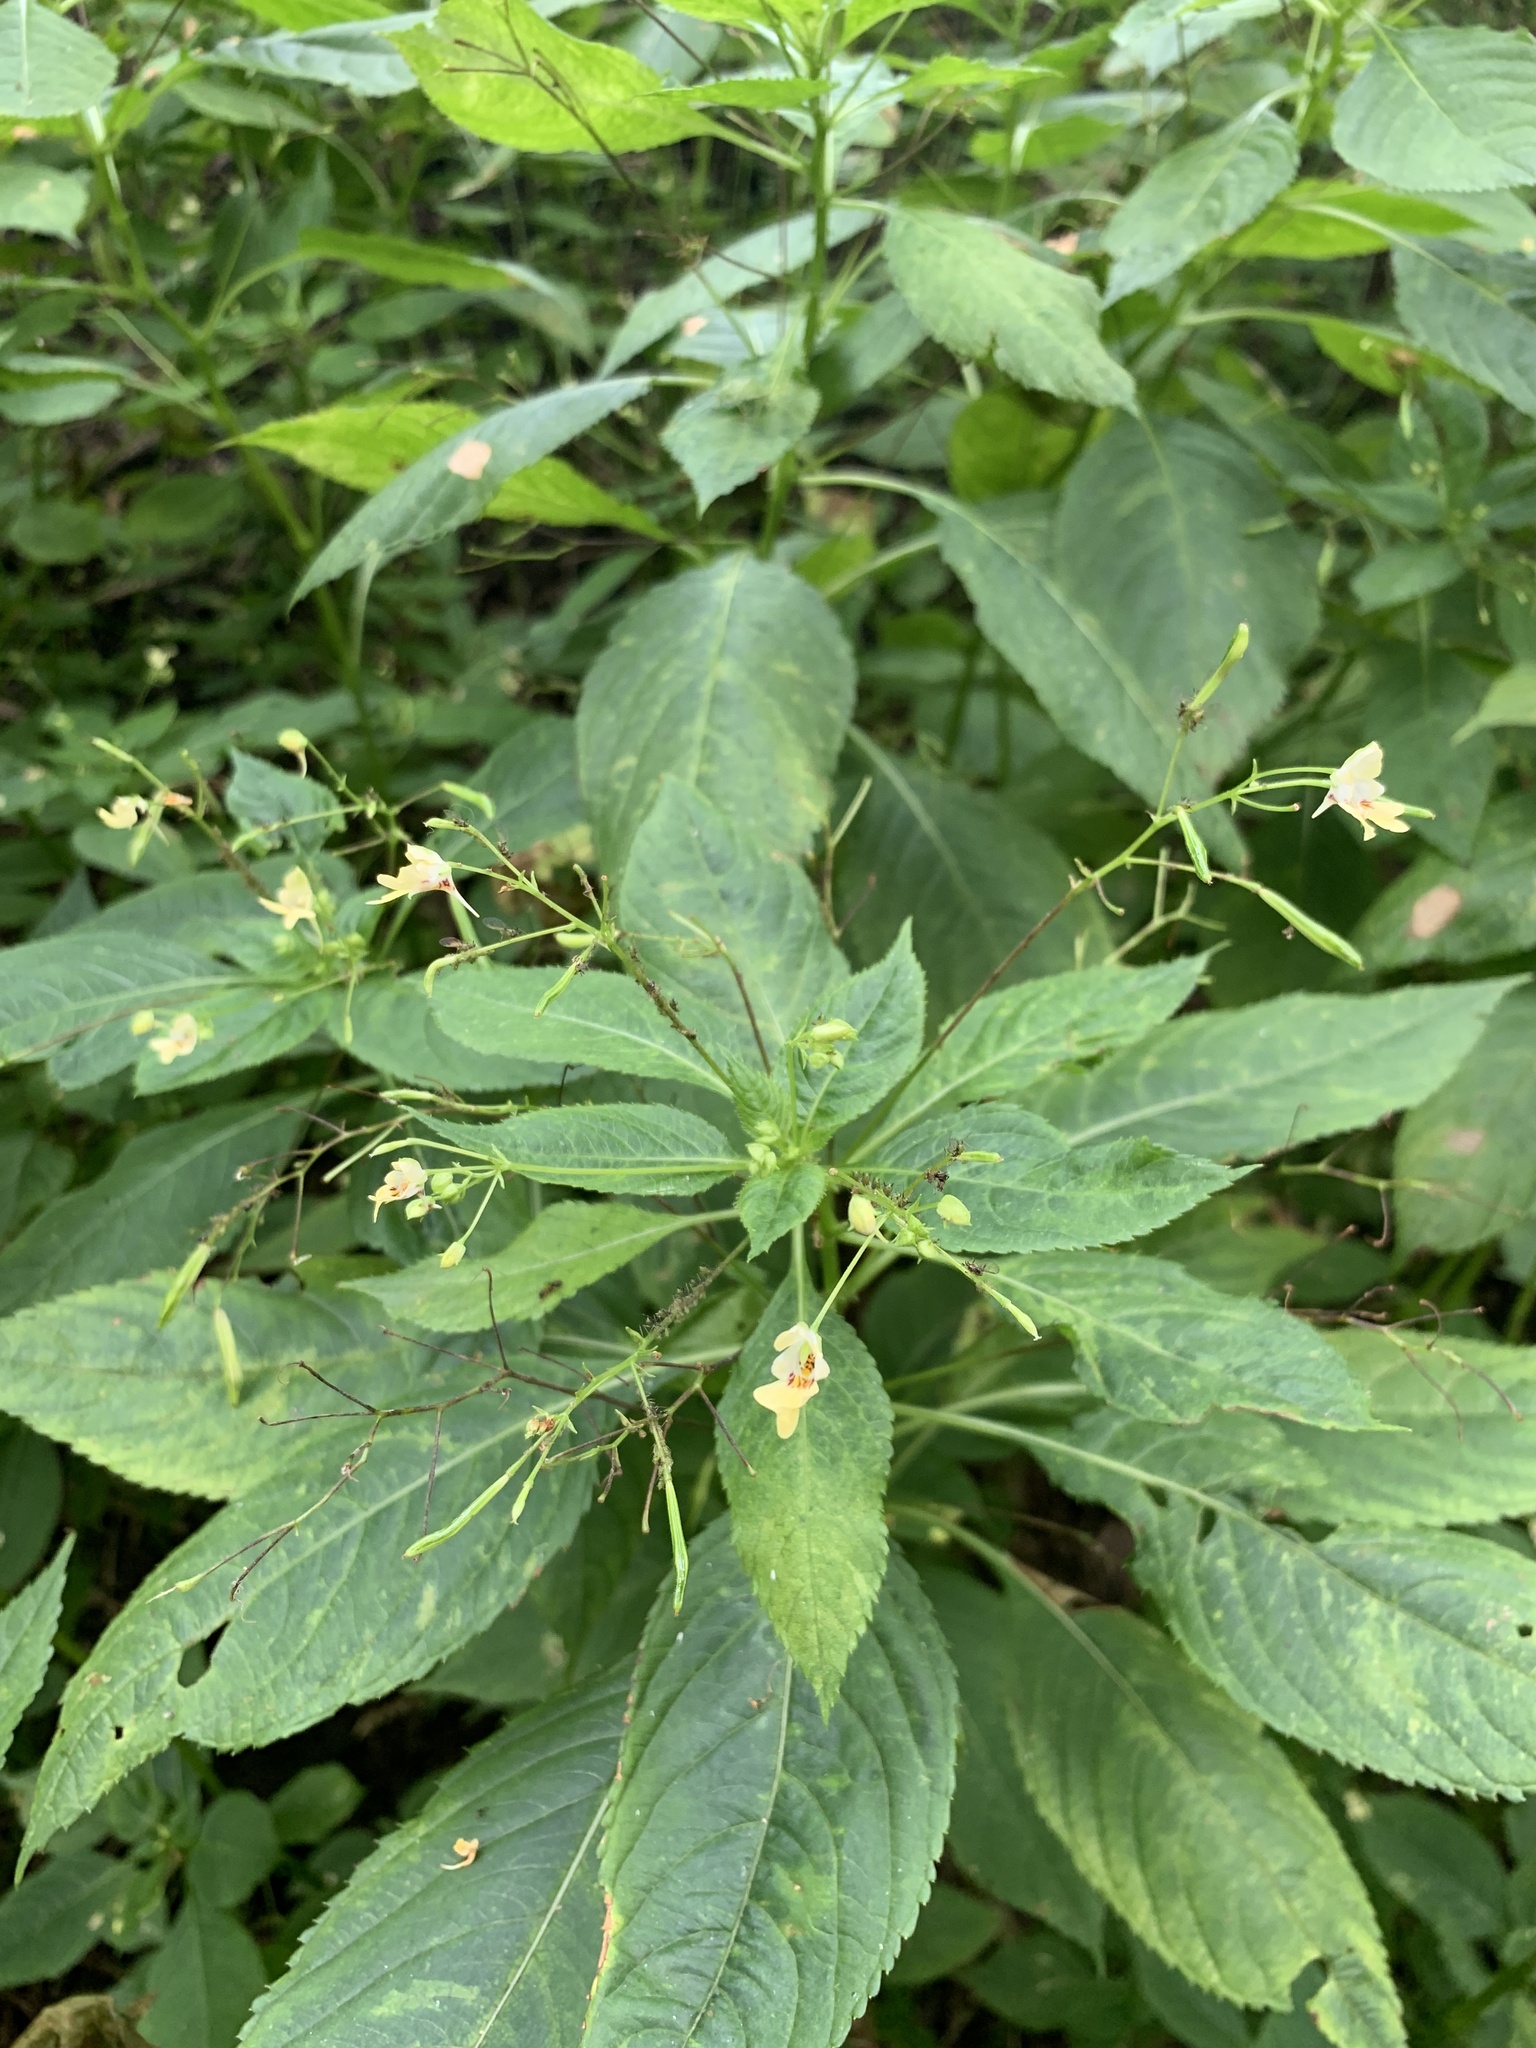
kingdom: Plantae
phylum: Tracheophyta
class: Magnoliopsida
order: Ericales
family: Balsaminaceae
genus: Impatiens
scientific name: Impatiens parviflora
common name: Small balsam
